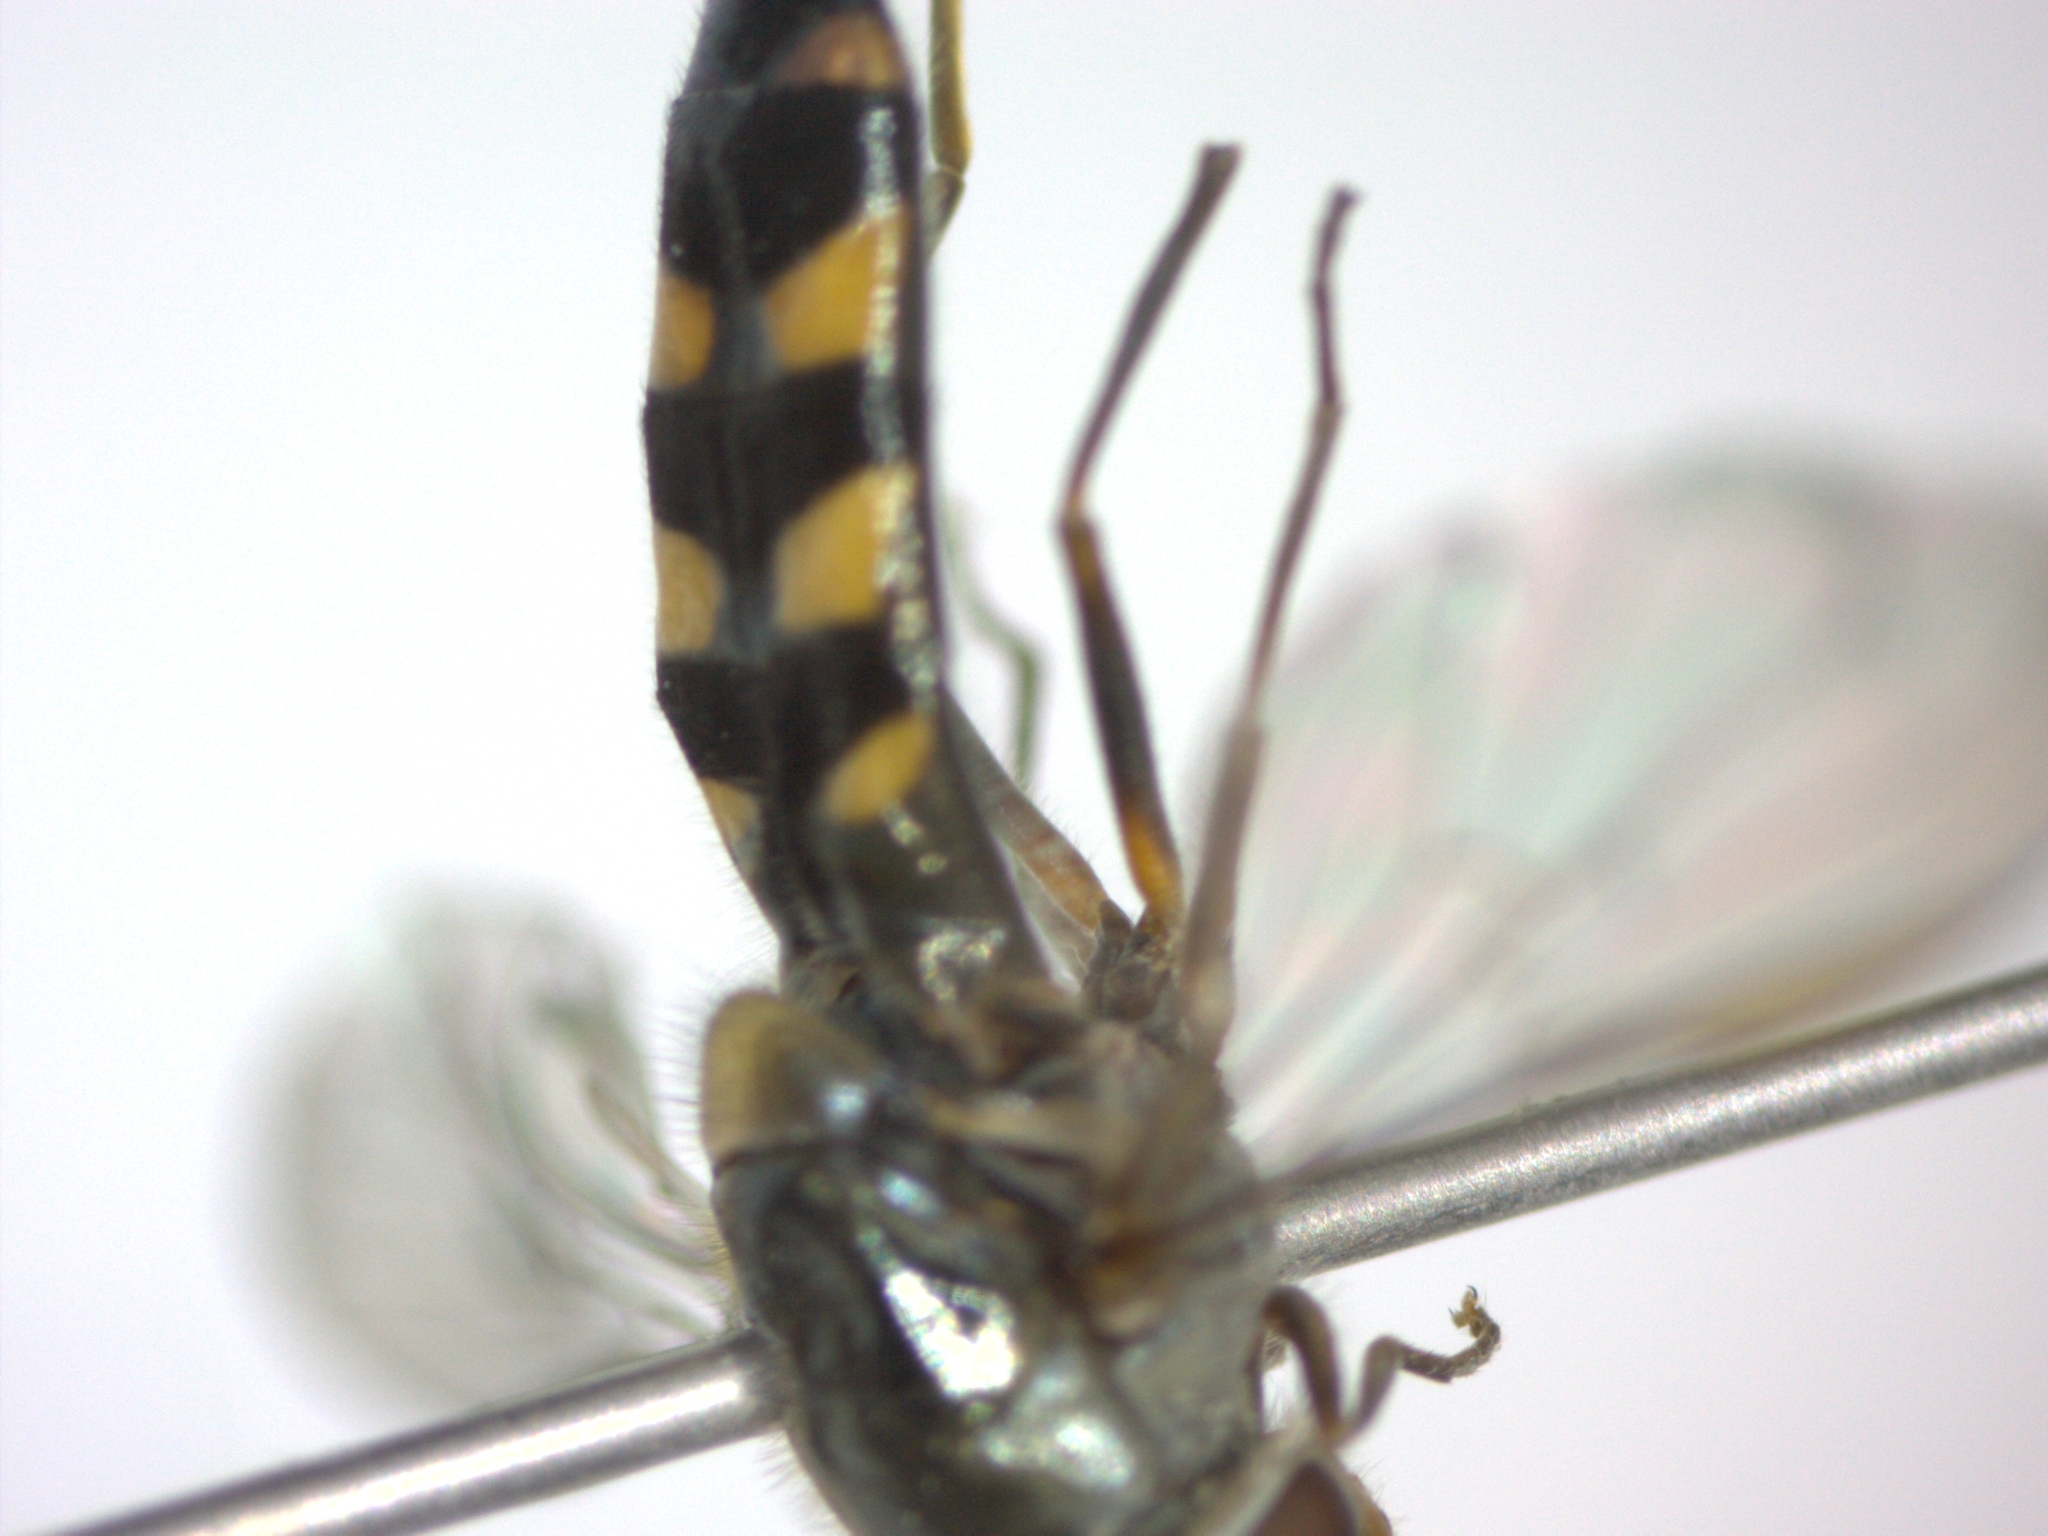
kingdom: Animalia
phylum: Arthropoda
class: Insecta
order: Diptera
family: Syrphidae
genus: Meliscaeva
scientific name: Meliscaeva auricollis
